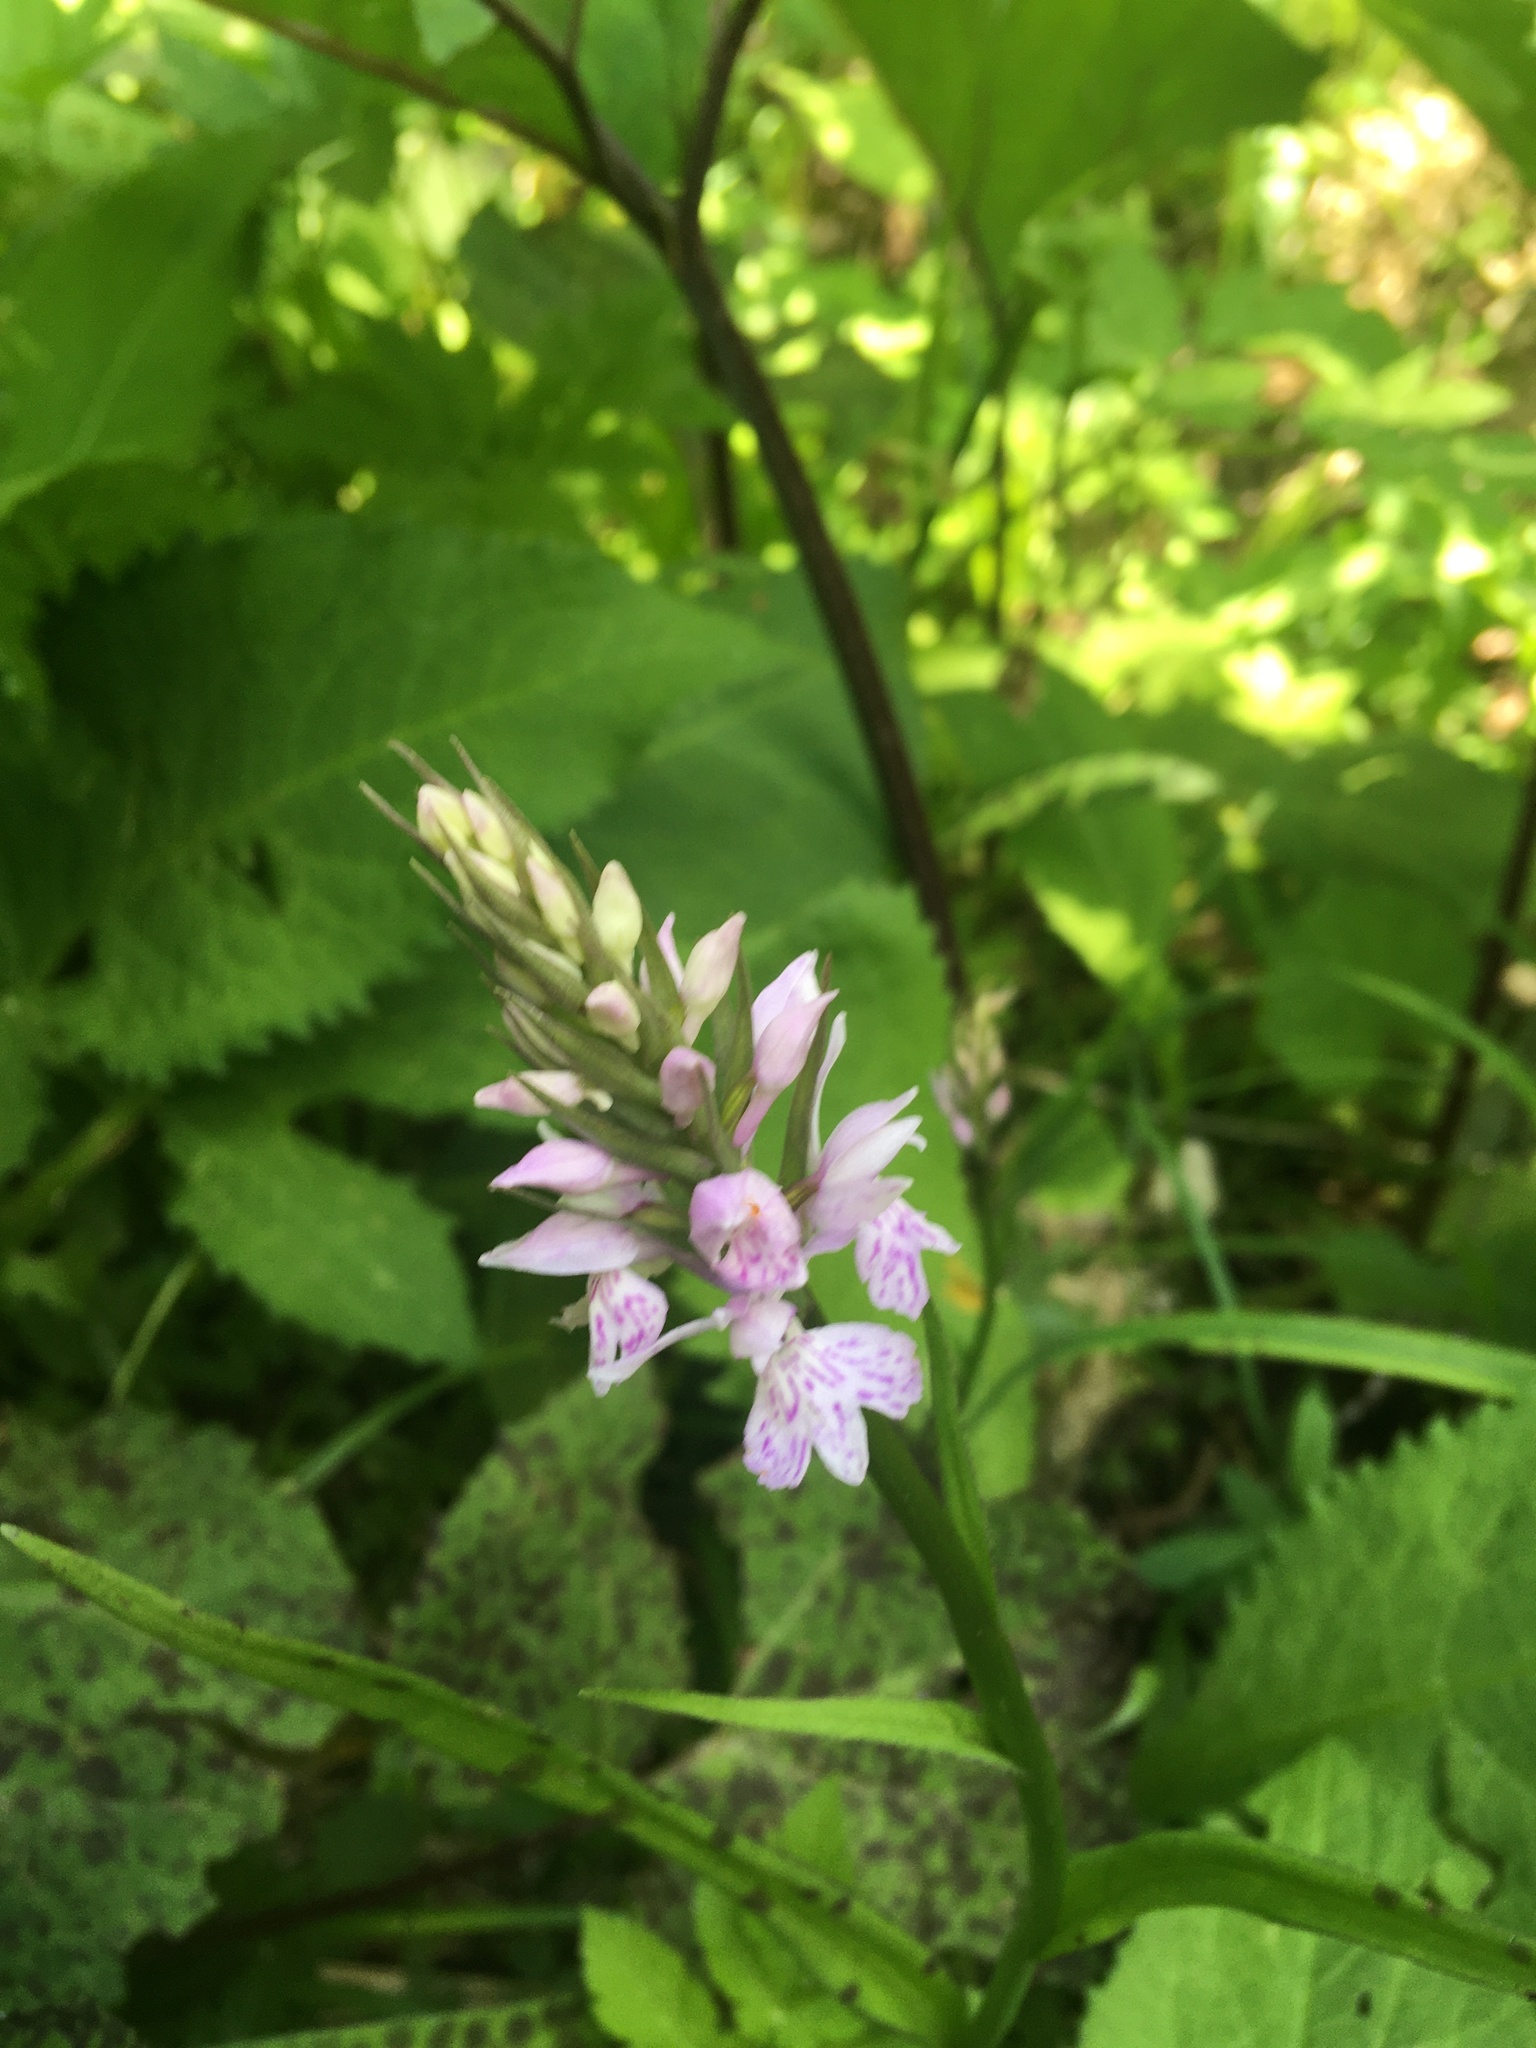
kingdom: Plantae
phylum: Tracheophyta
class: Liliopsida
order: Asparagales
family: Orchidaceae
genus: Dactylorhiza
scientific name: Dactylorhiza maculata
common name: Heath spotted-orchid
